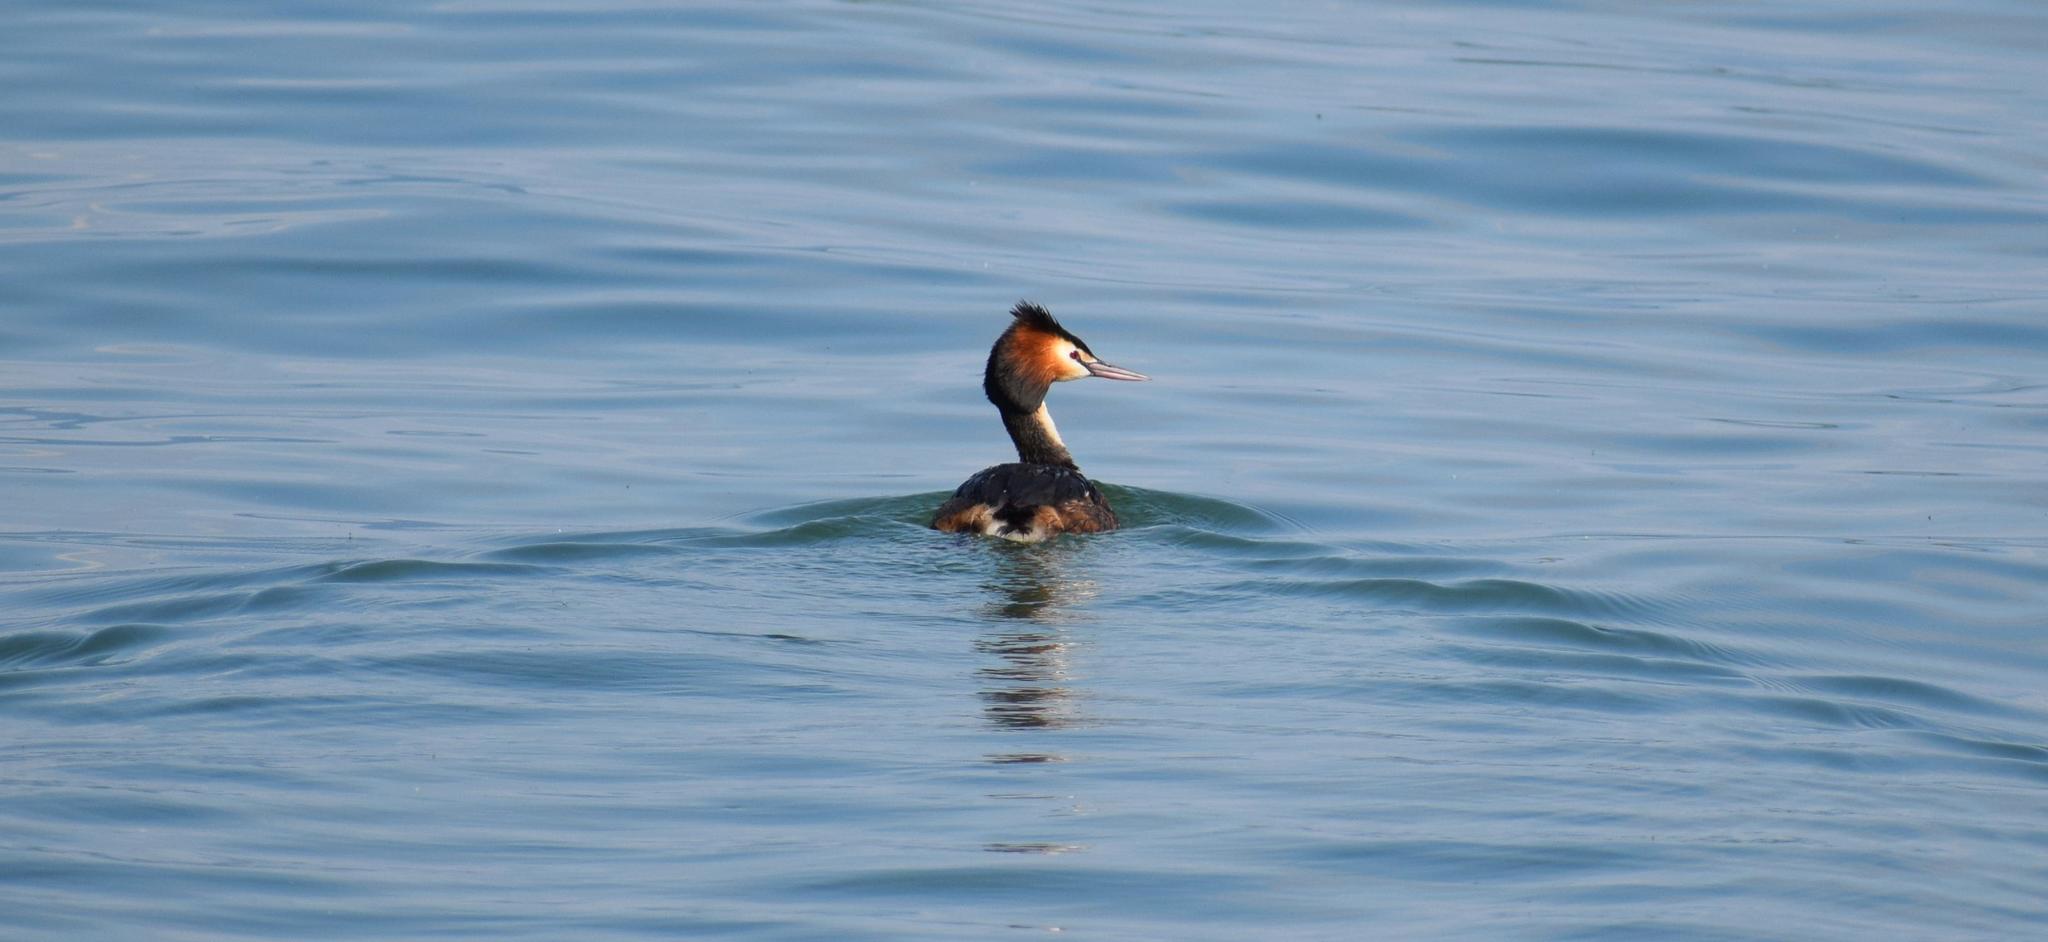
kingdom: Animalia
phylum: Chordata
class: Aves
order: Podicipediformes
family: Podicipedidae
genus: Podiceps
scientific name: Podiceps cristatus
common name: Great crested grebe
